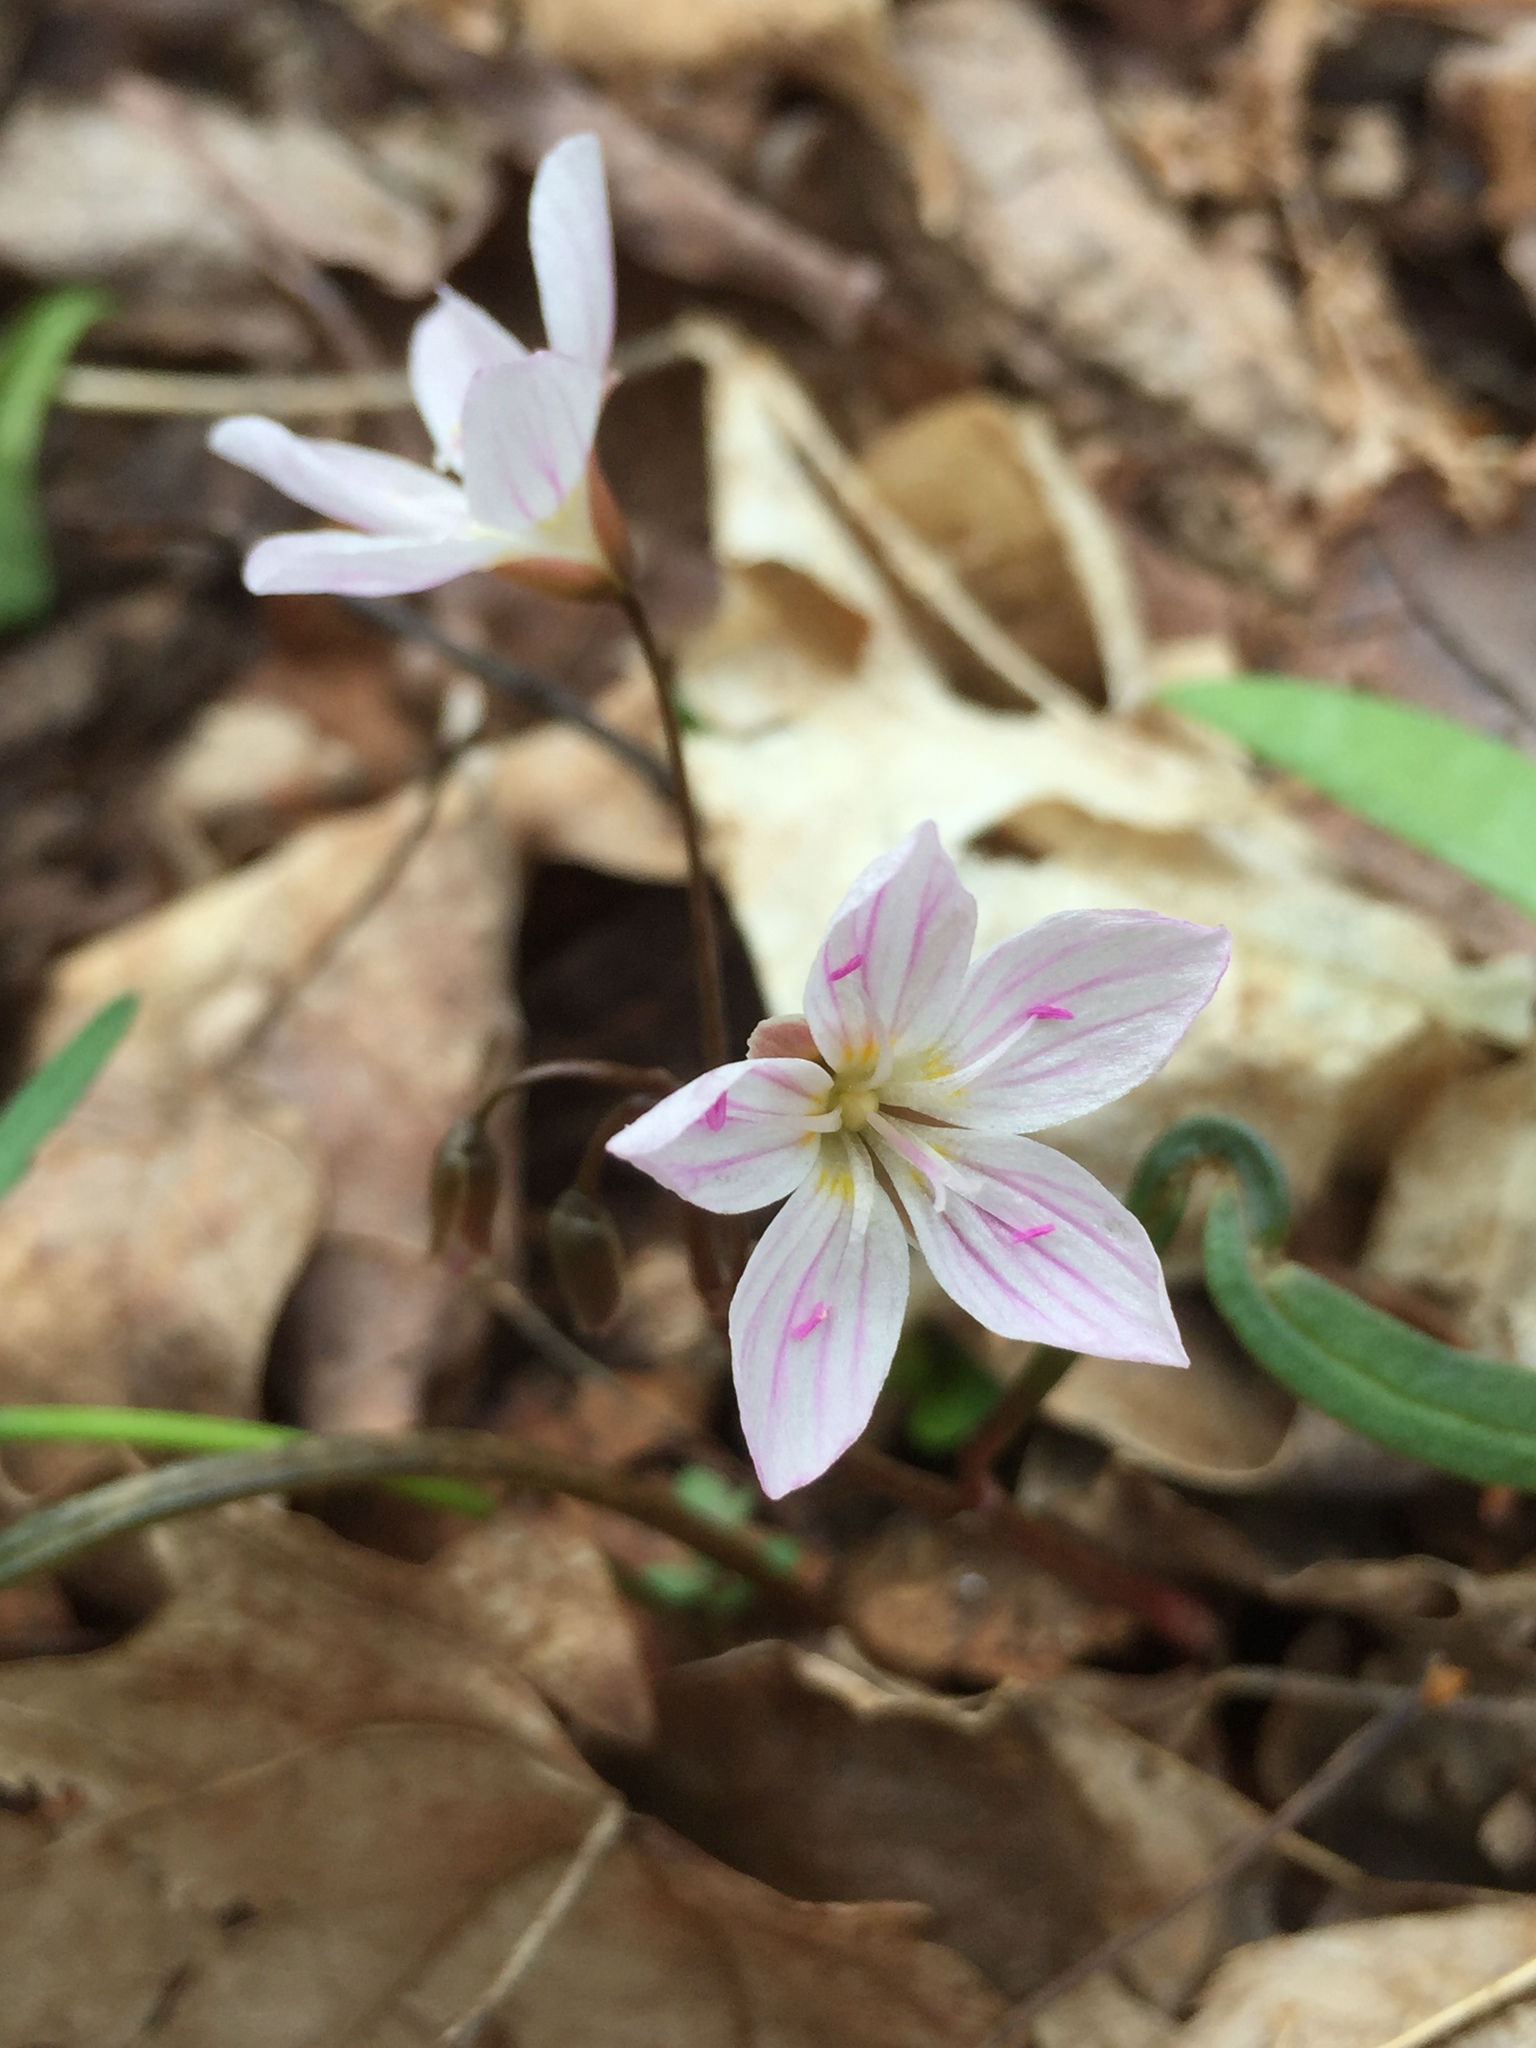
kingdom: Plantae
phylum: Tracheophyta
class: Magnoliopsida
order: Caryophyllales
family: Montiaceae
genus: Claytonia
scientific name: Claytonia virginica
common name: Virginia springbeauty
